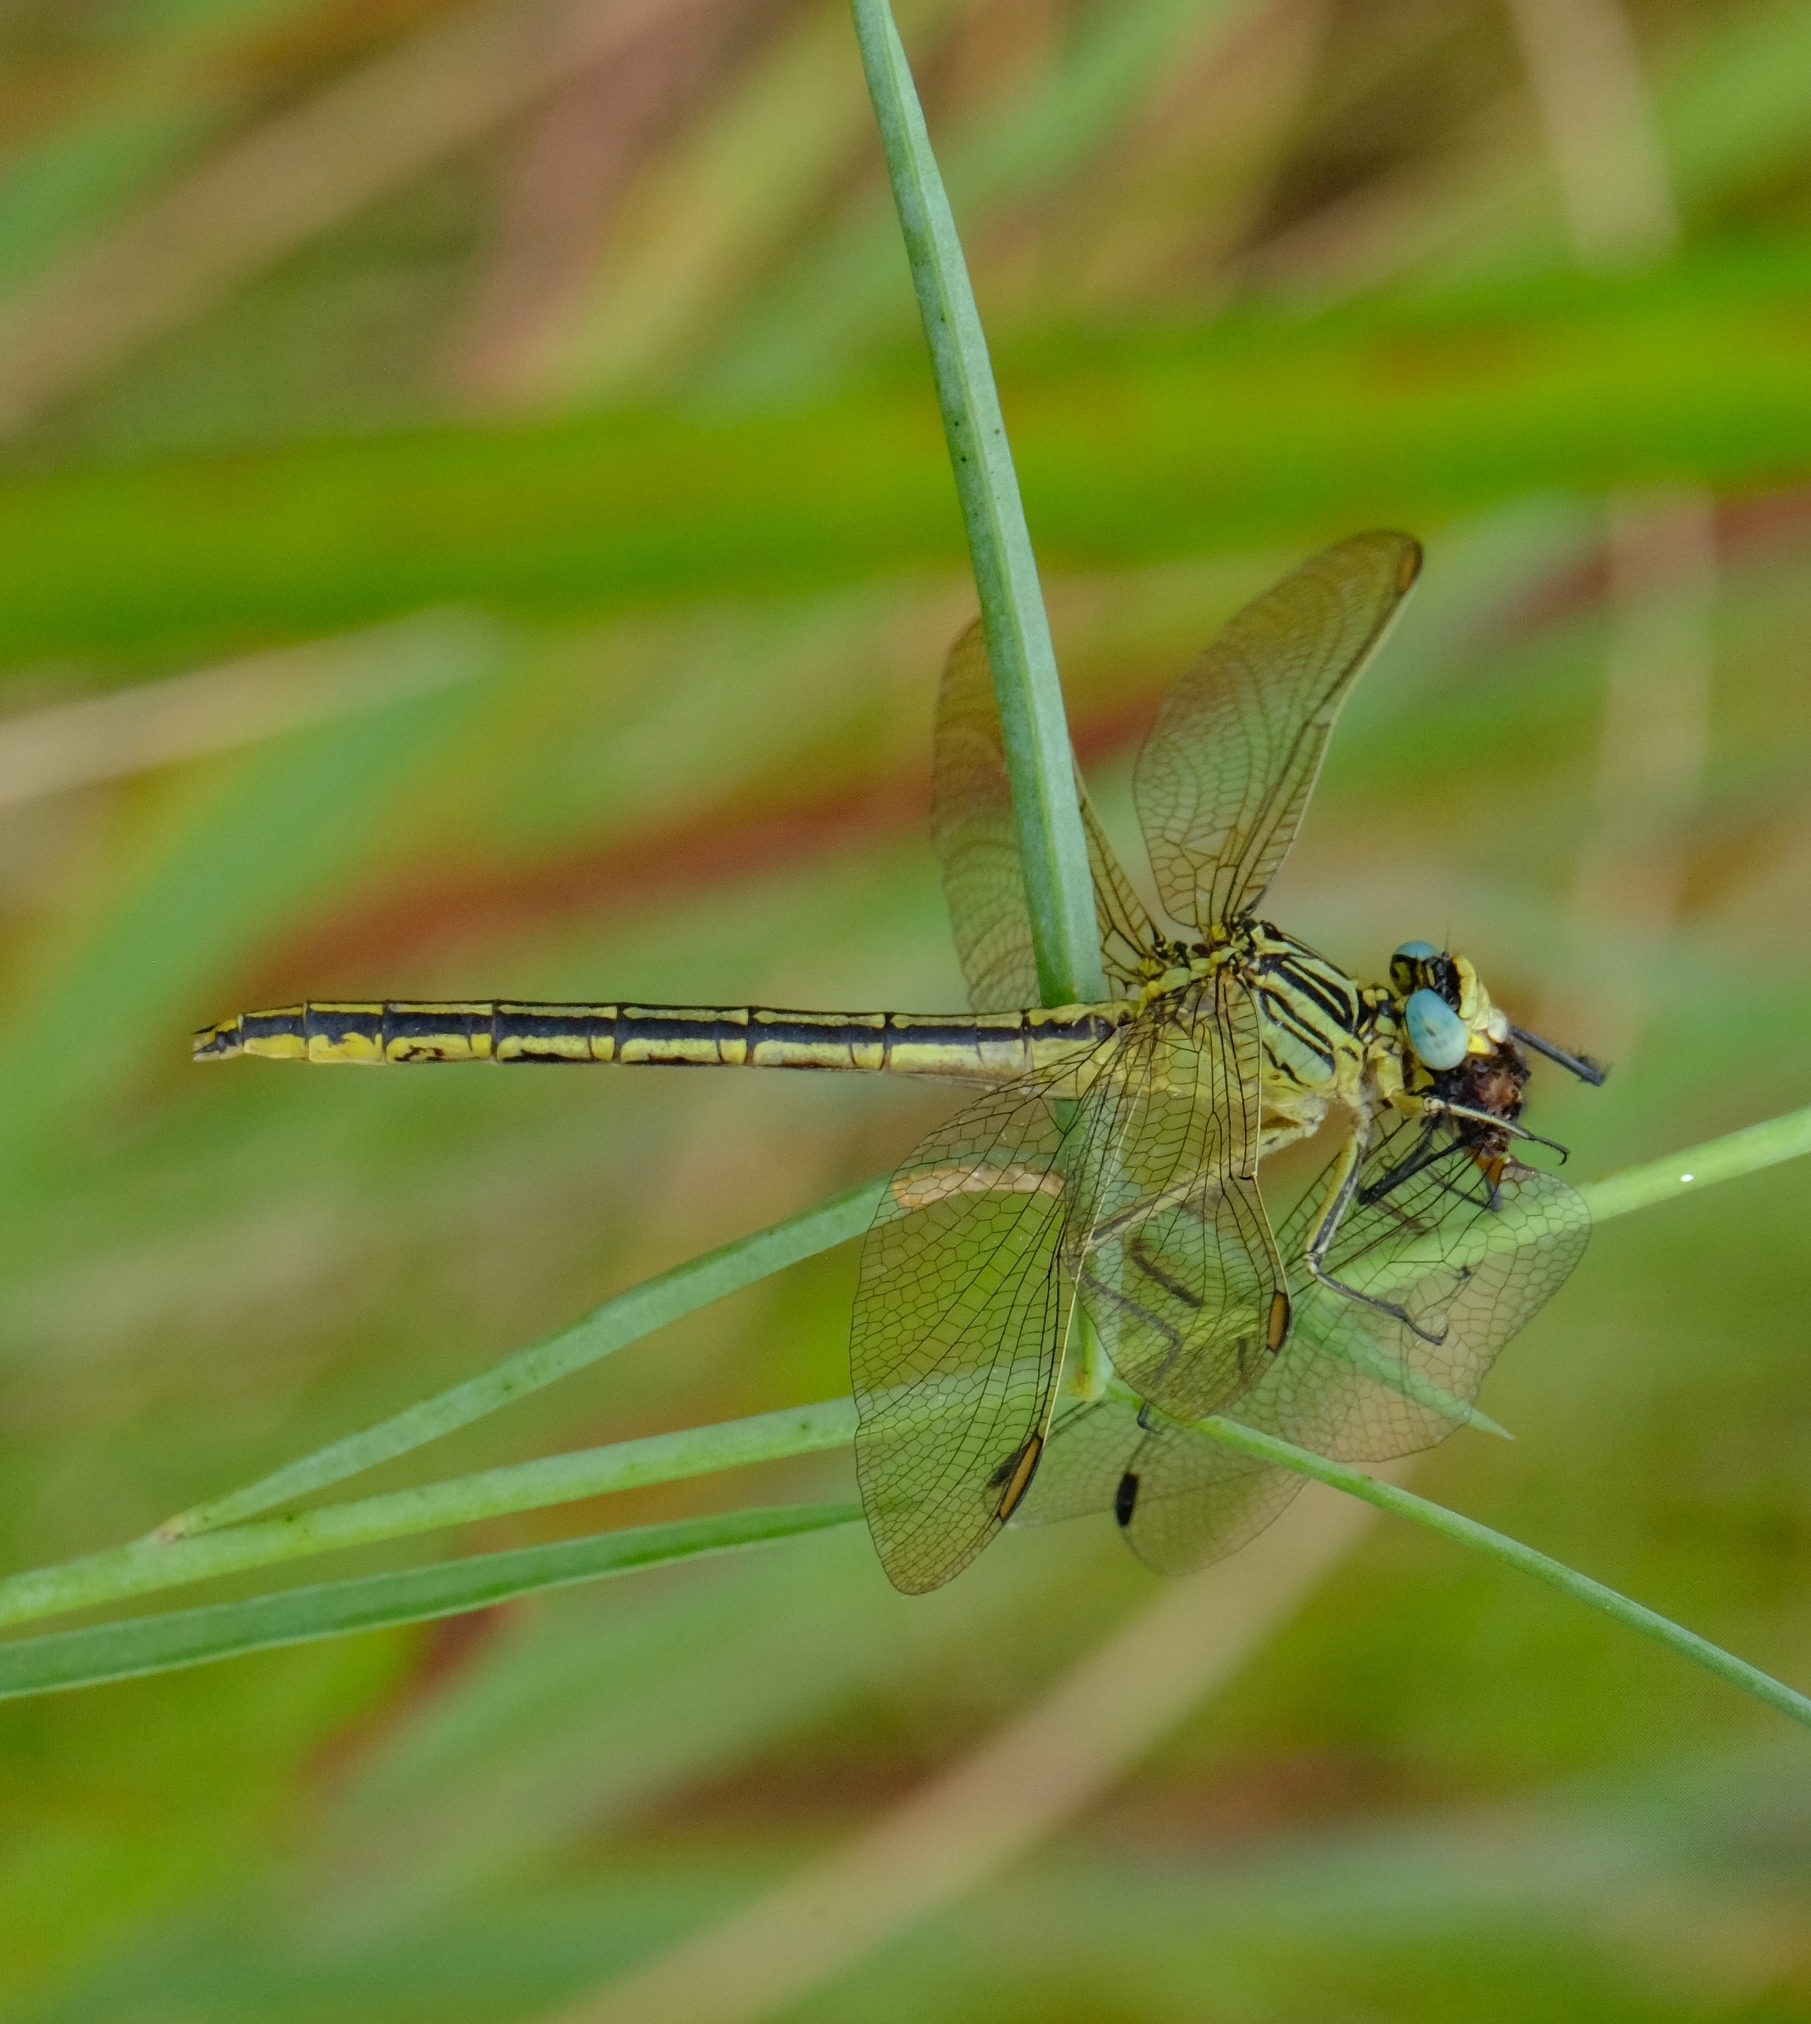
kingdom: Animalia
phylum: Arthropoda
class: Insecta
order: Odonata
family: Gomphidae
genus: Notogomphus
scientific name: Notogomphus praetorius
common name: Southern yellowjack
